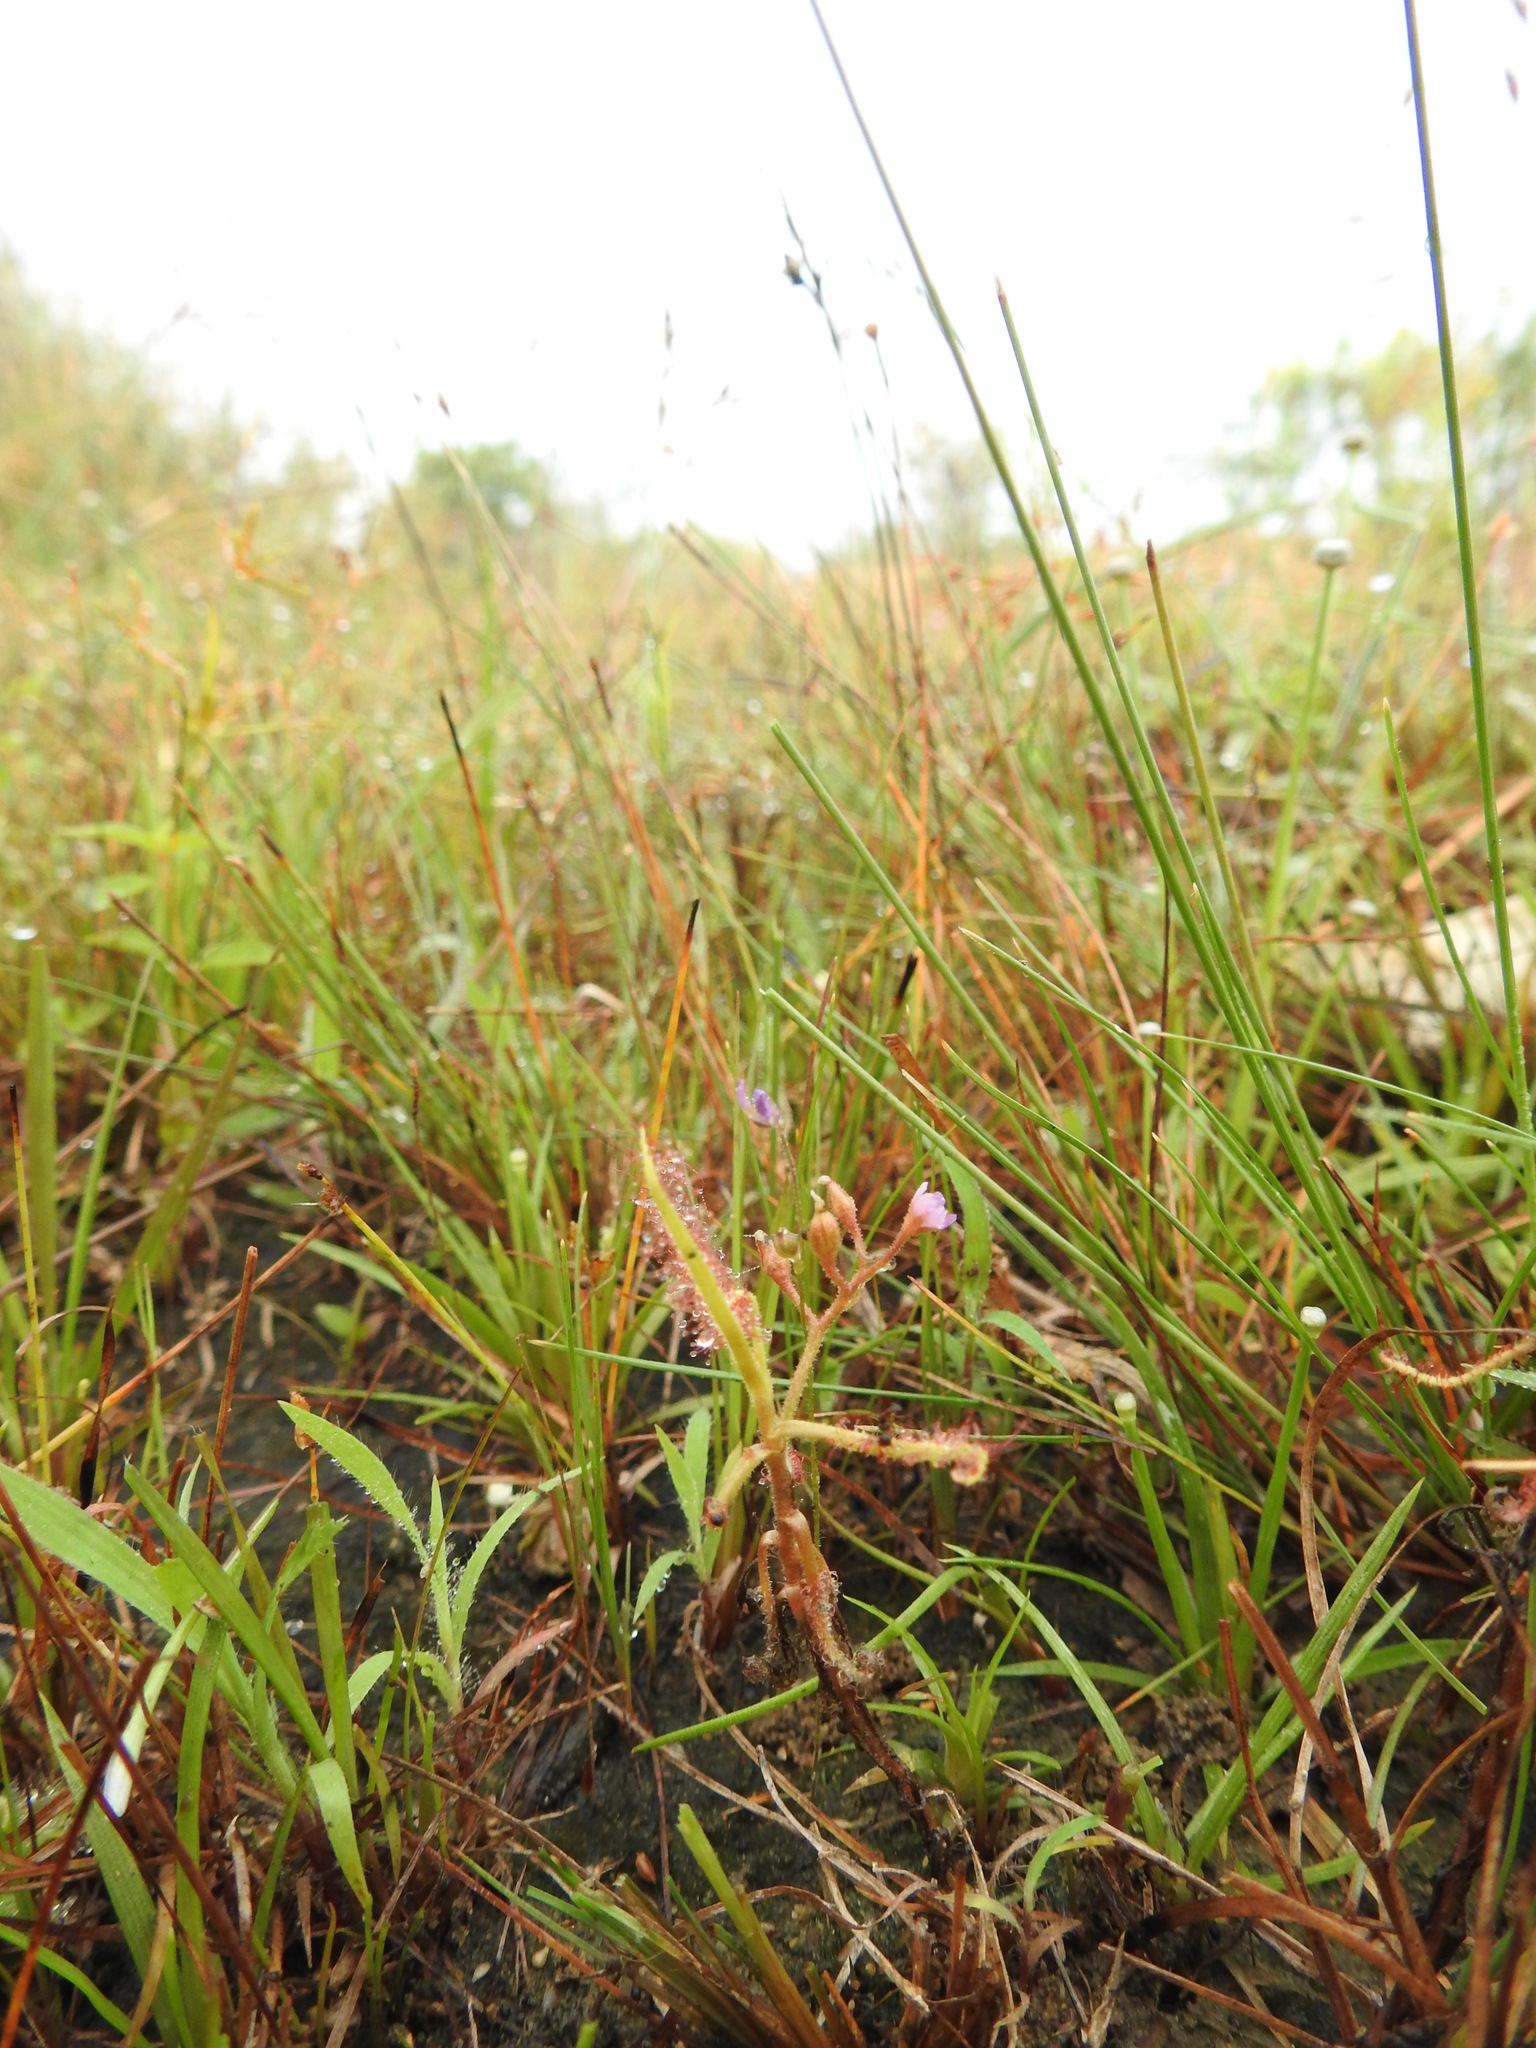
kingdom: Plantae
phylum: Tracheophyta
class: Magnoliopsida
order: Caryophyllales
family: Droseraceae
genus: Drosera
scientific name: Drosera indica
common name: Indian sundew
